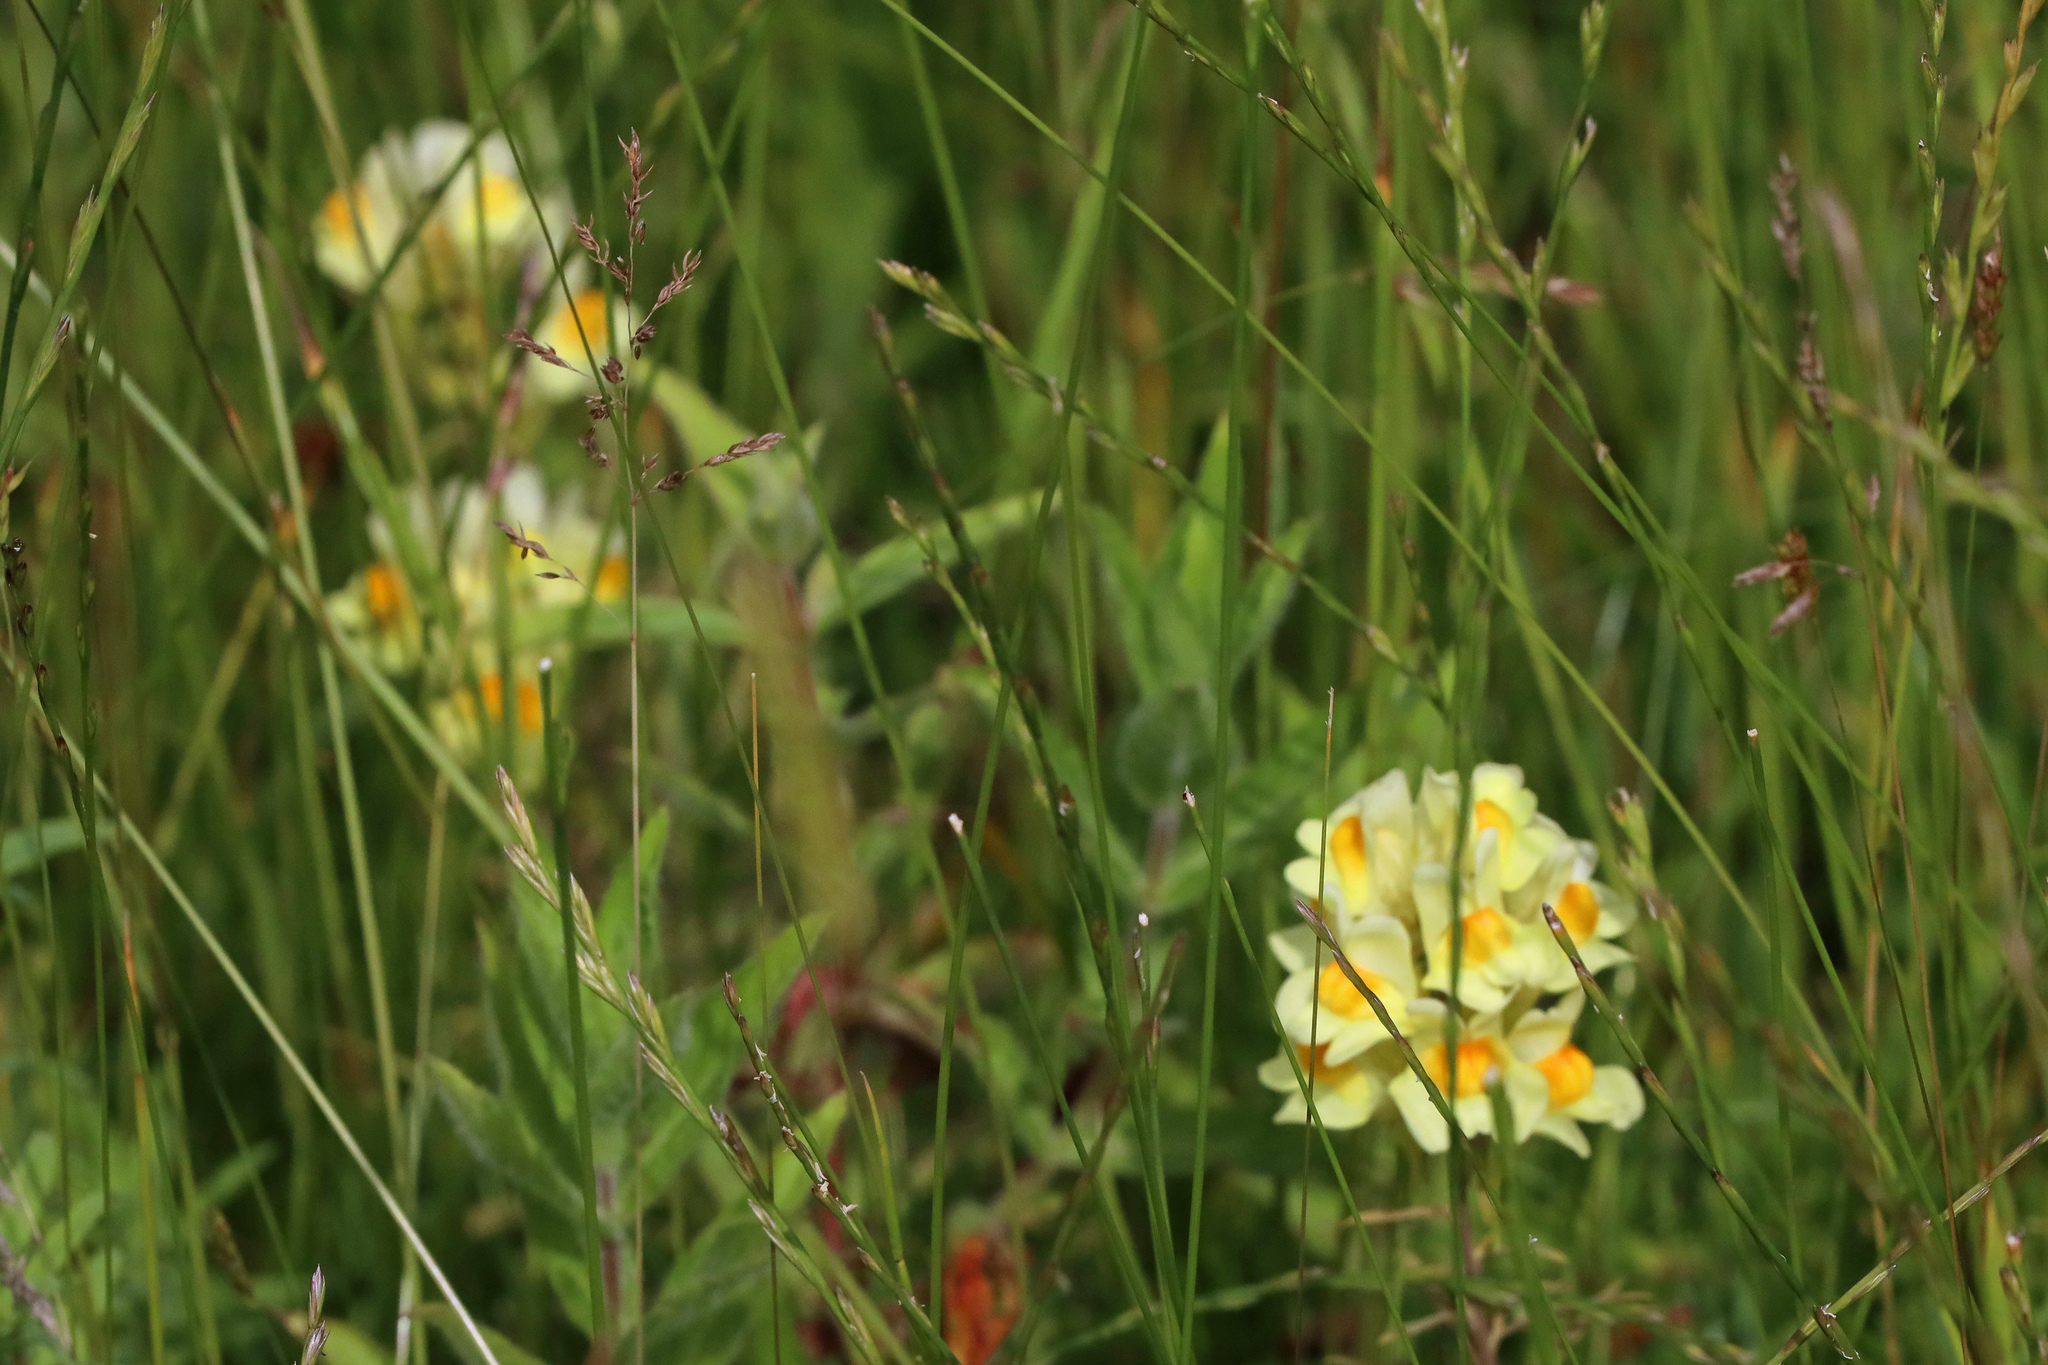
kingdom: Plantae
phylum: Tracheophyta
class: Magnoliopsida
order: Lamiales
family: Plantaginaceae
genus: Linaria
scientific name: Linaria vulgaris
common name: Butter and eggs
